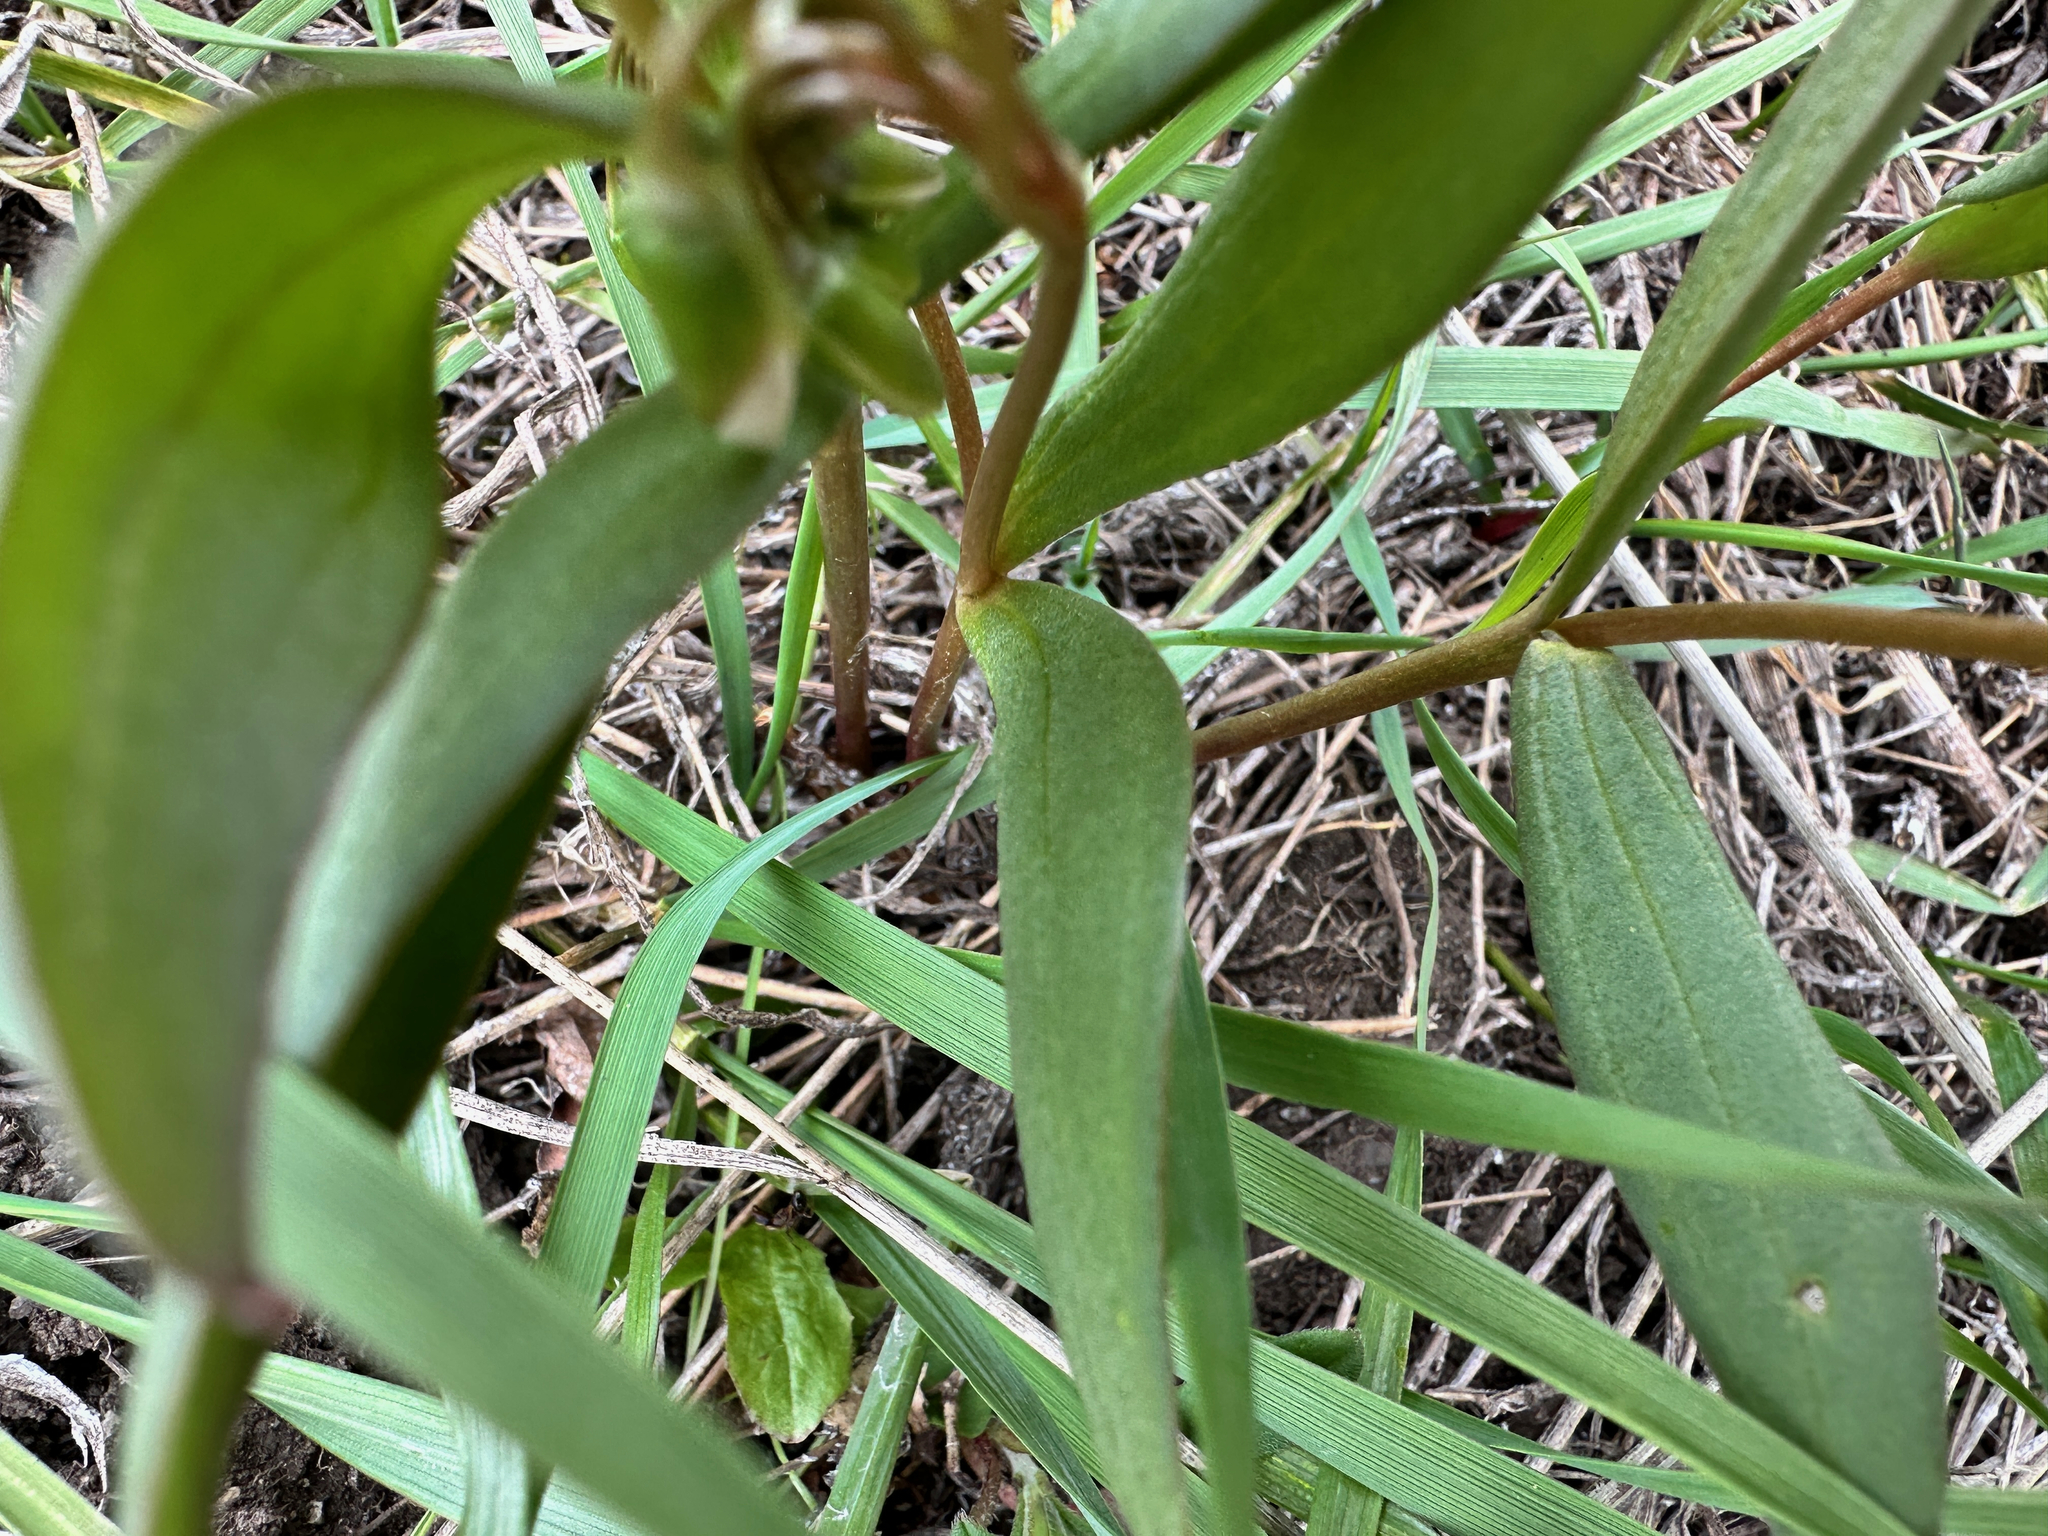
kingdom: Plantae
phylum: Tracheophyta
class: Magnoliopsida
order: Caryophyllales
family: Montiaceae
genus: Claytonia
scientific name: Claytonia lanceolata
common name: Western spring-beauty
